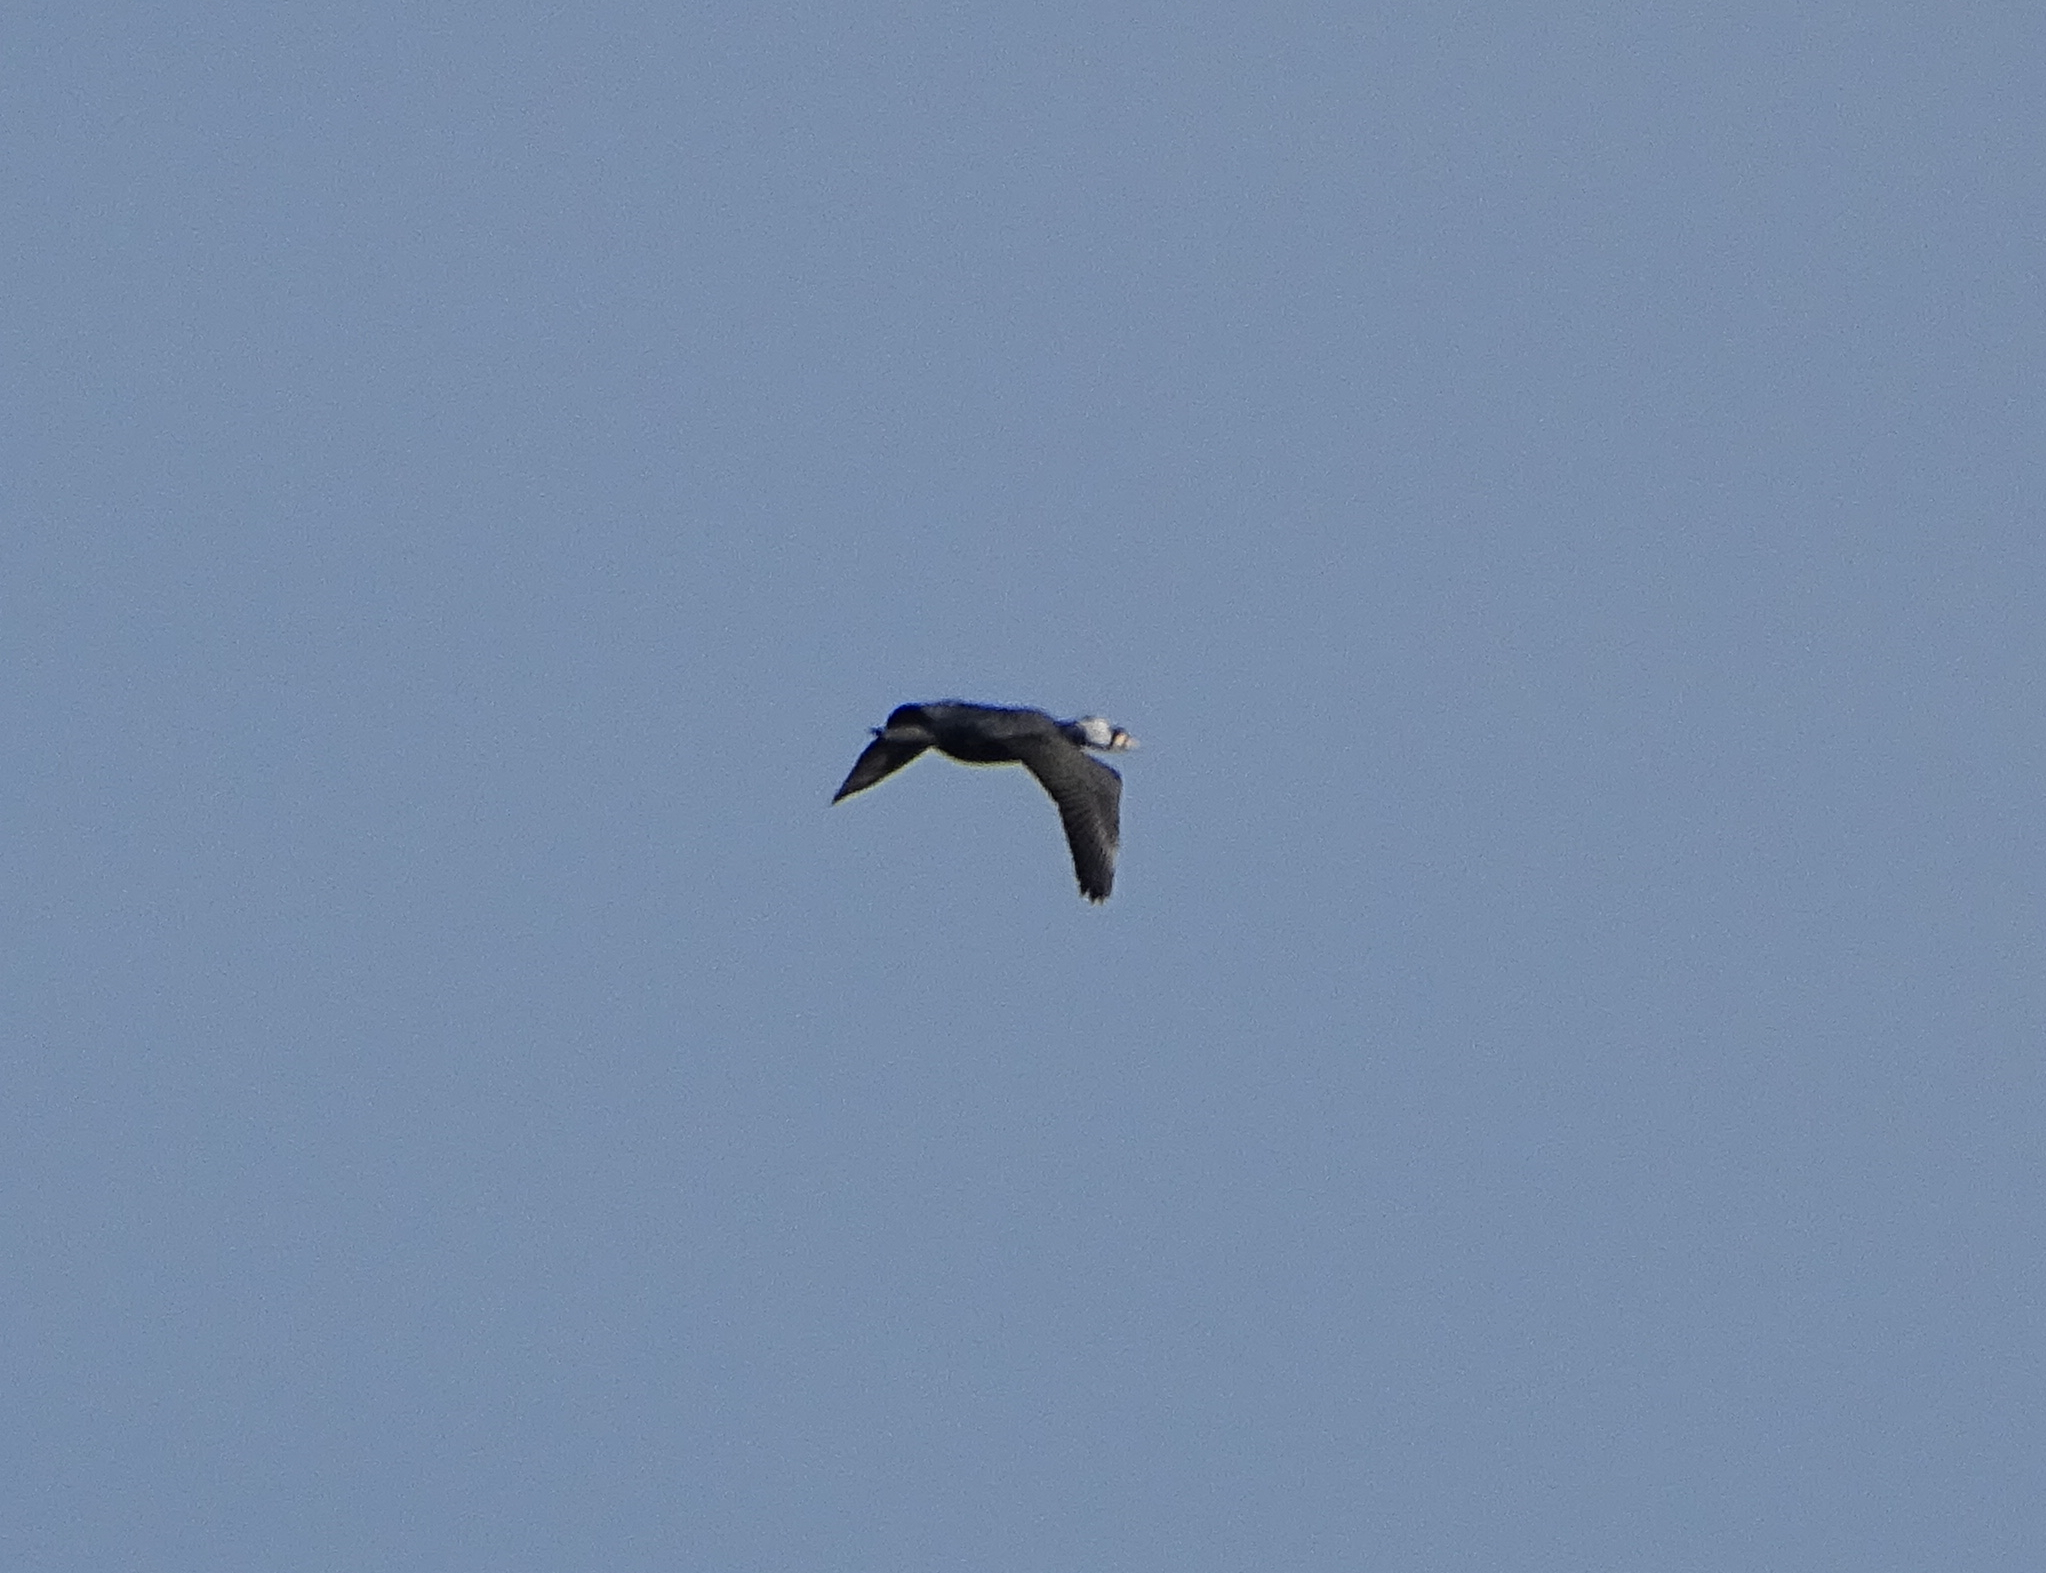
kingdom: Animalia
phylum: Chordata
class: Aves
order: Suliformes
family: Phalacrocoracidae
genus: Phalacrocorax
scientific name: Phalacrocorax carbo
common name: Great cormorant
